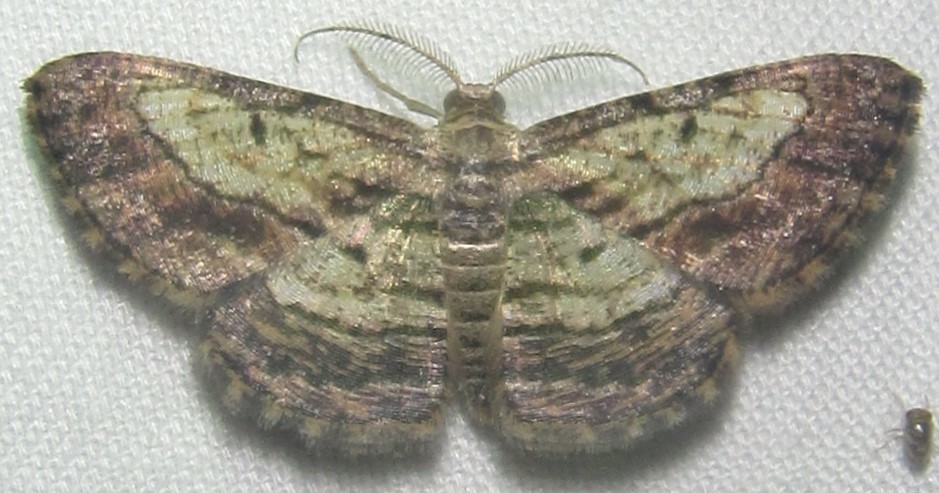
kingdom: Animalia
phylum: Arthropoda
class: Insecta
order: Lepidoptera
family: Geometridae
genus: Zamarada
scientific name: Zamarada ascaphes
